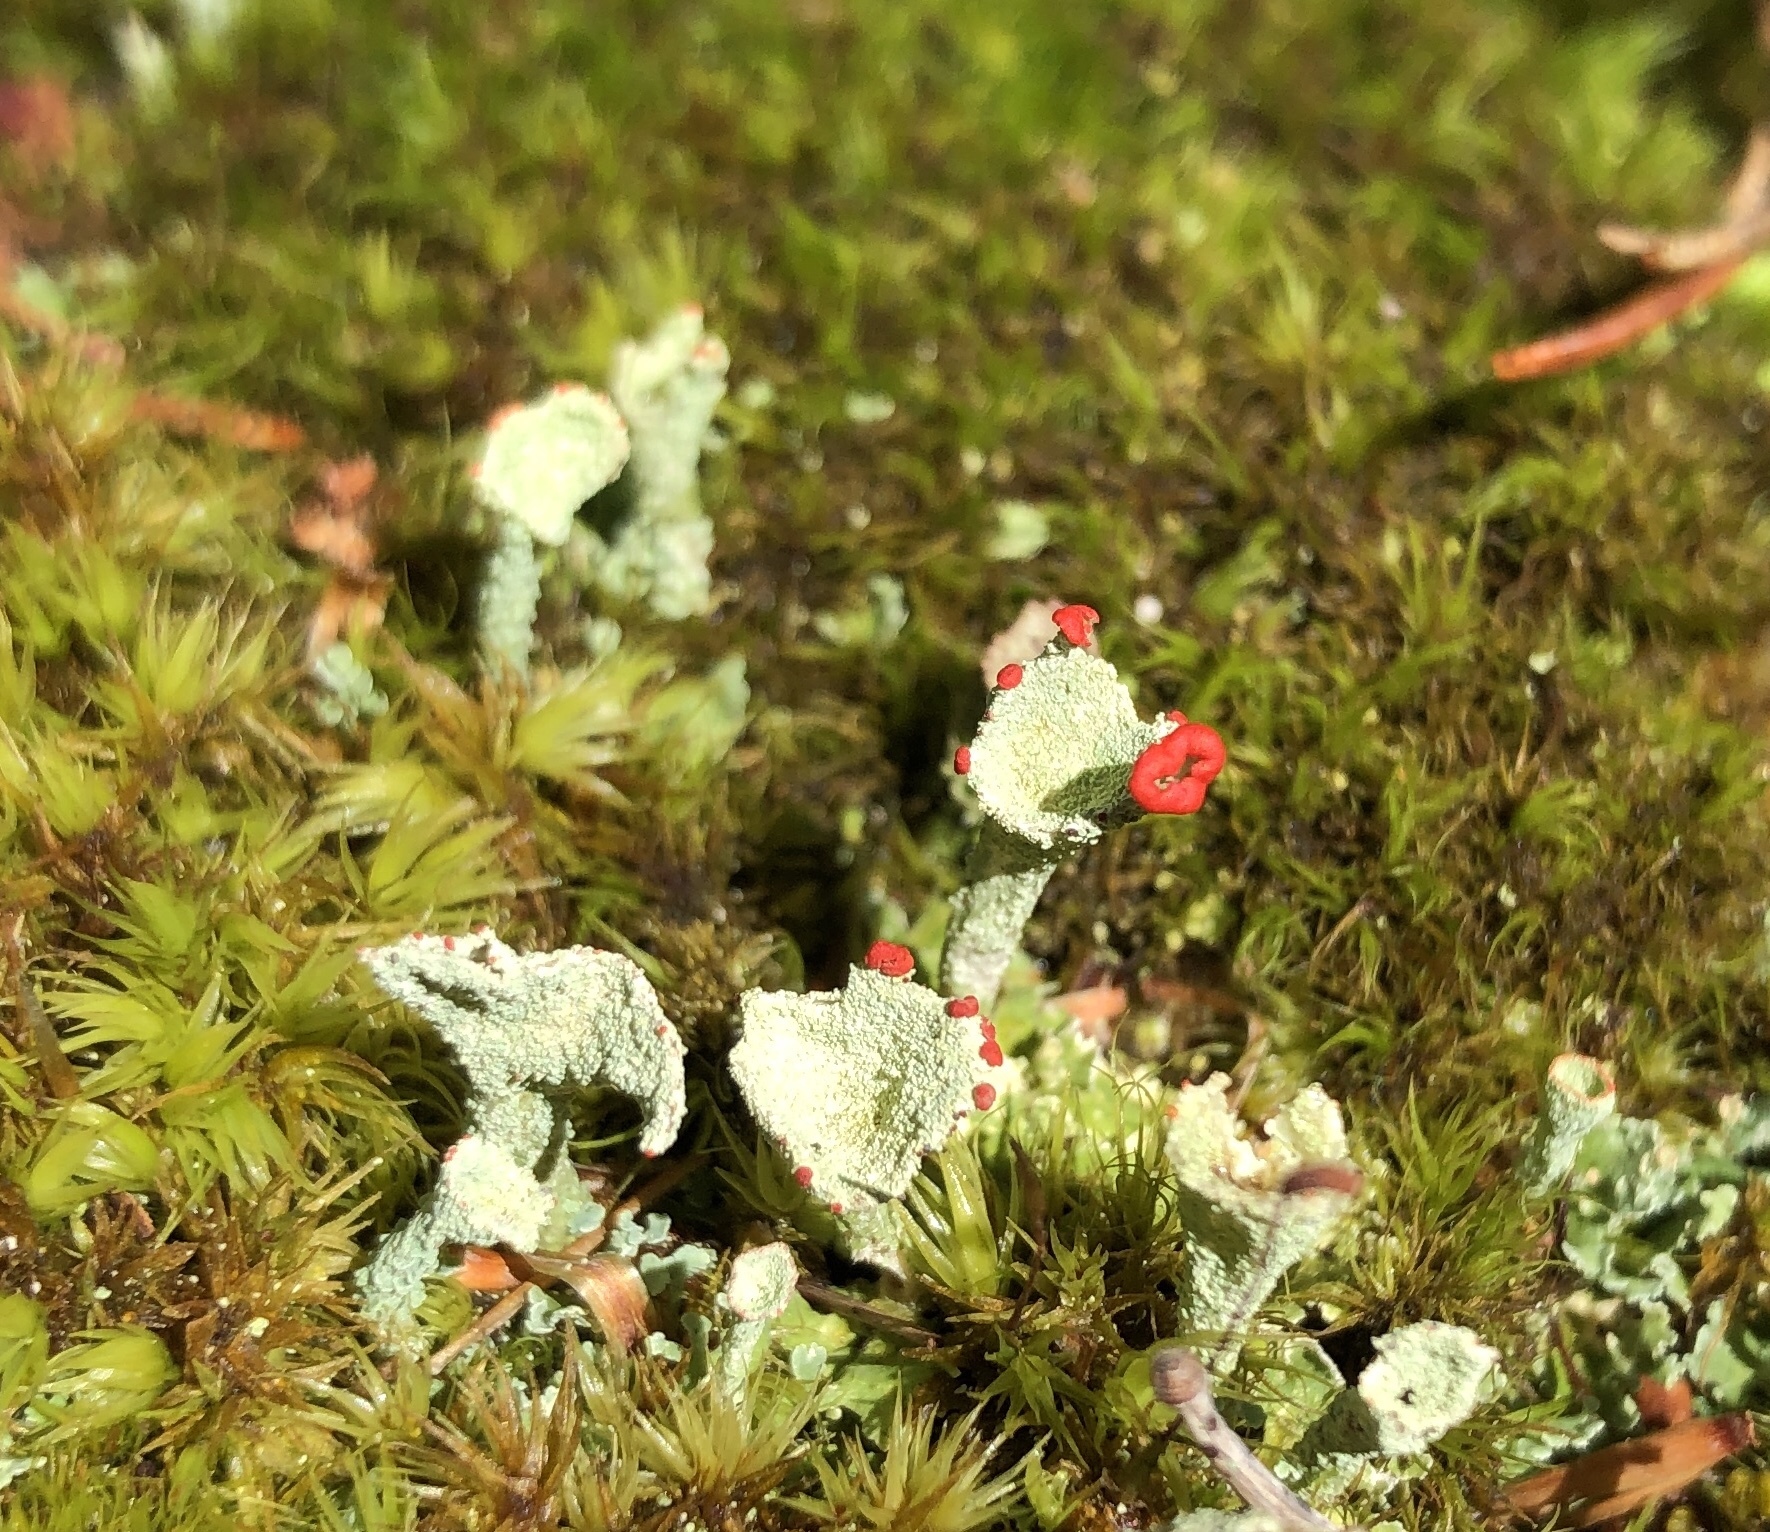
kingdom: Fungi
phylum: Ascomycota
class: Lecanoromycetes
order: Lecanorales
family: Cladoniaceae
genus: Cladonia
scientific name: Cladonia pleurota
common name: Red-fruited pixie cup
